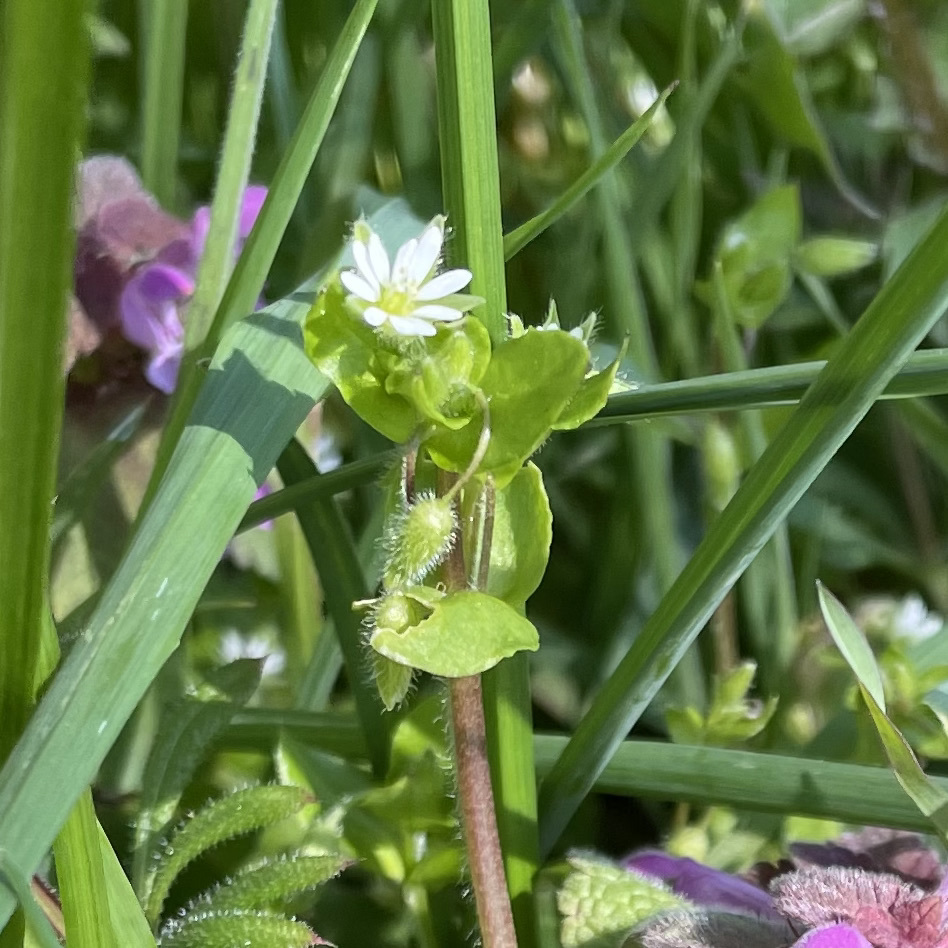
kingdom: Plantae
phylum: Tracheophyta
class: Magnoliopsida
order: Caryophyllales
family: Caryophyllaceae
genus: Stellaria
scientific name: Stellaria media
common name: Common chickweed
